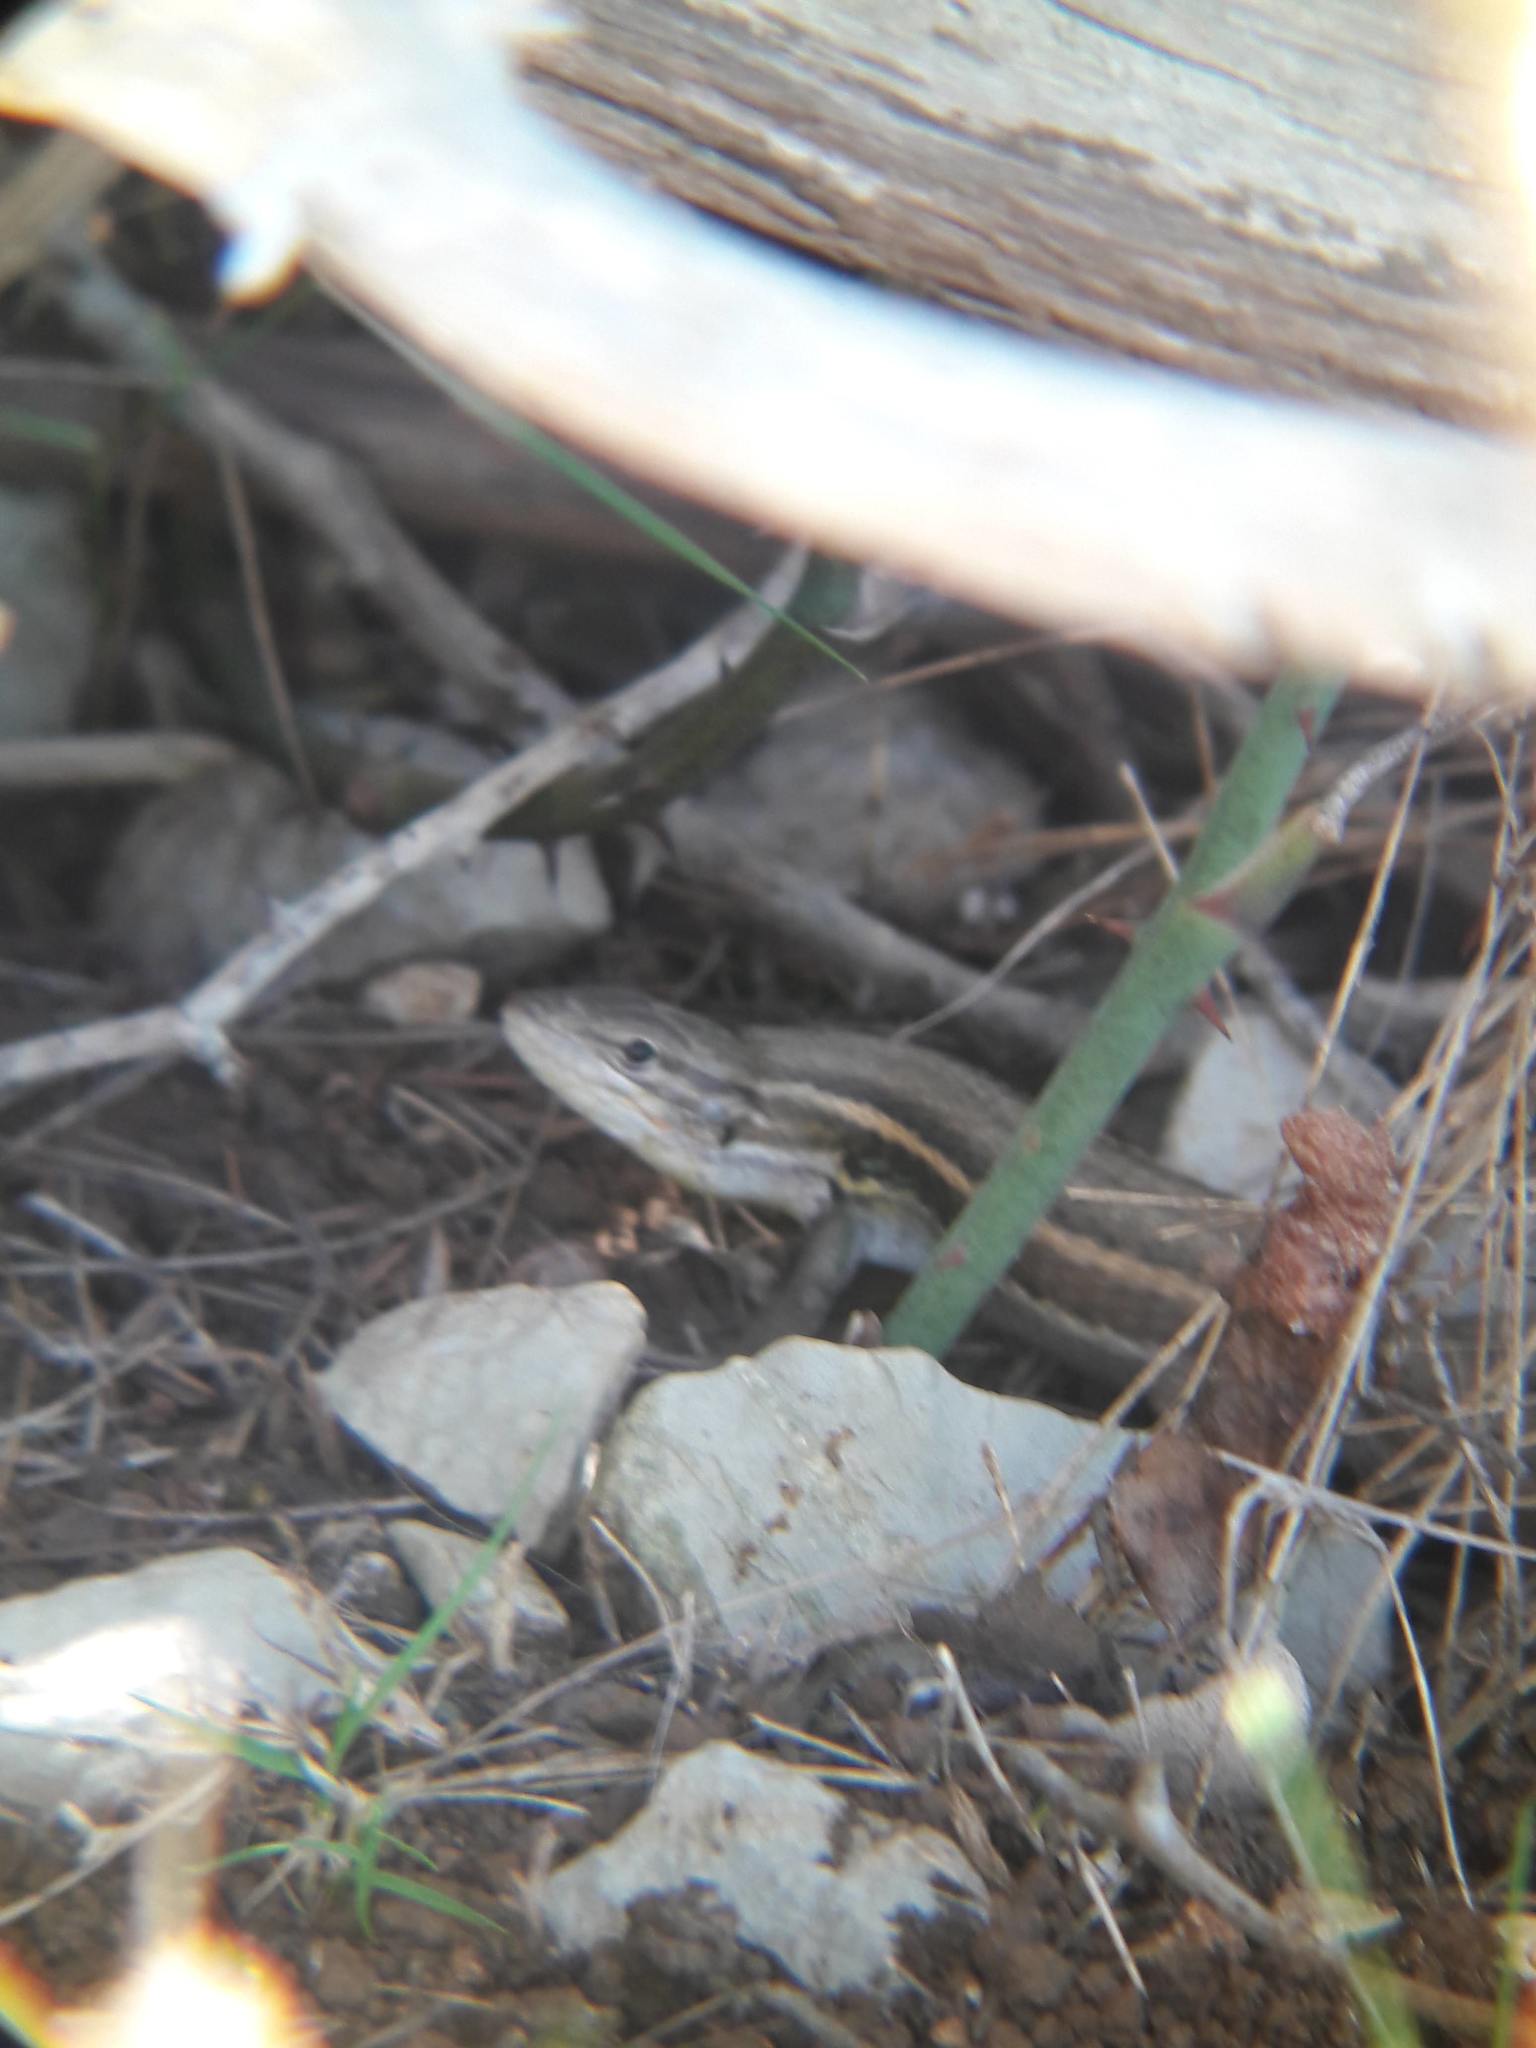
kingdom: Animalia
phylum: Chordata
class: Squamata
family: Lacertidae
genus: Psammodromus
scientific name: Psammodromus algirus
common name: Algerian psammodromus
